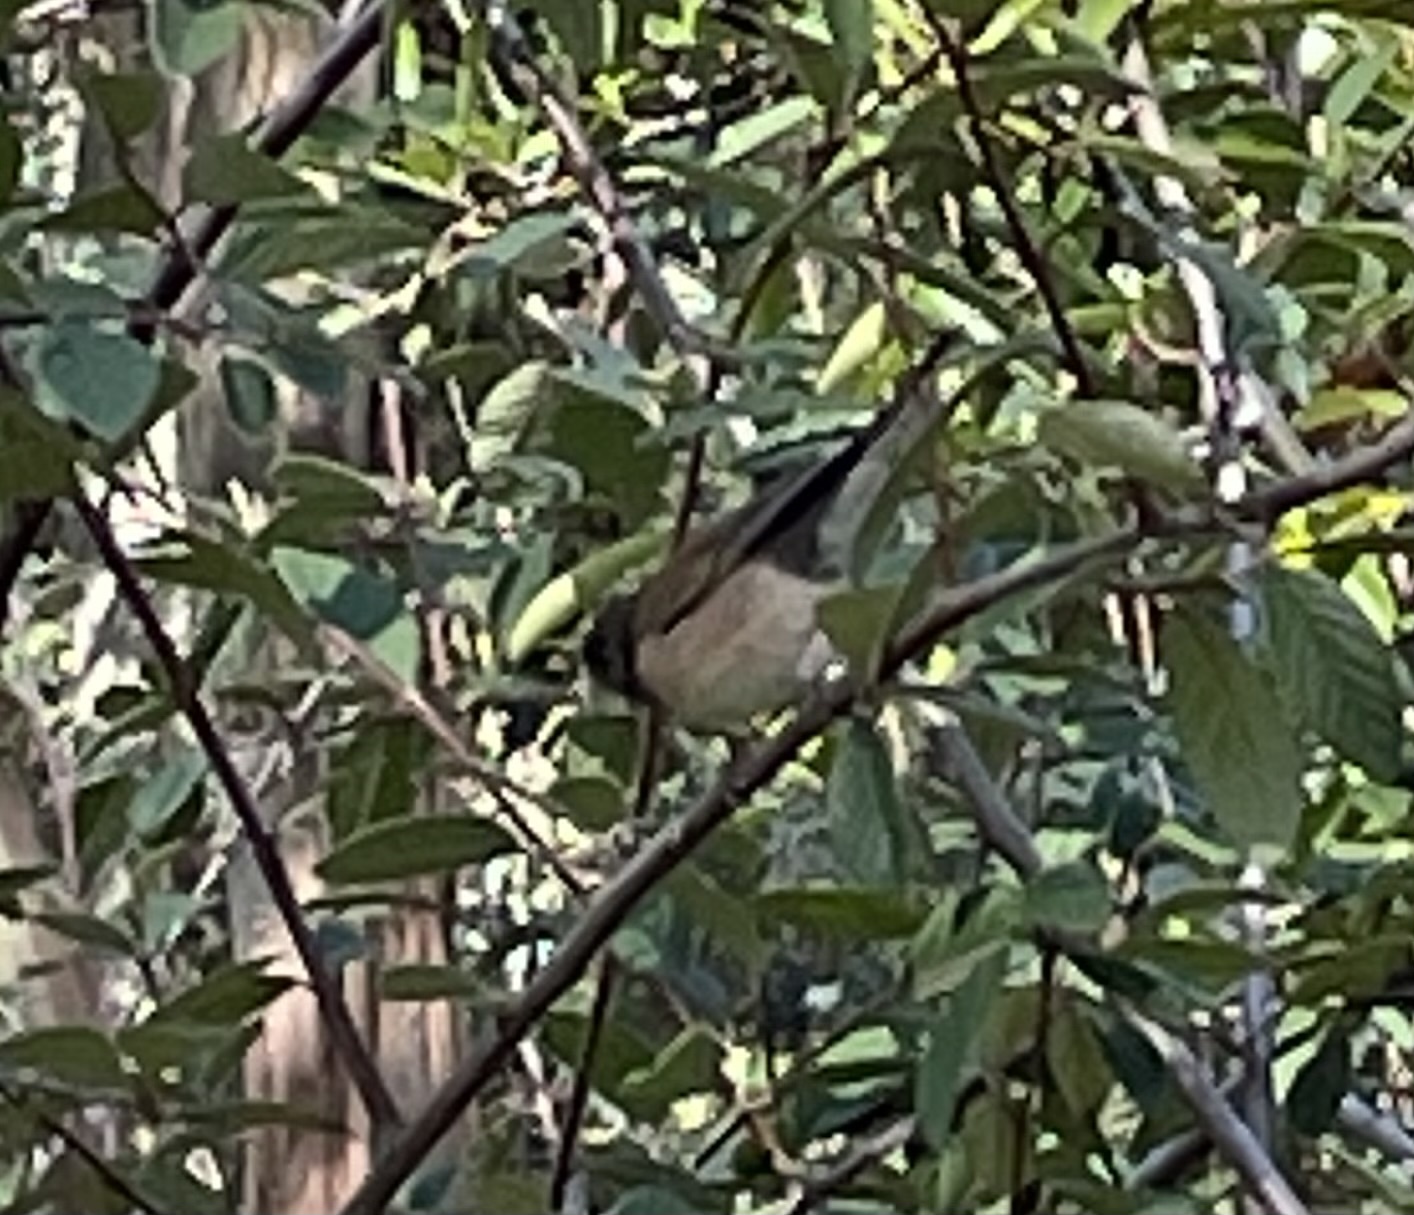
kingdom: Animalia
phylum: Chordata
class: Aves
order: Passeriformes
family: Passerellidae
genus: Junco
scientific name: Junco hyemalis
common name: Dark-eyed junco
